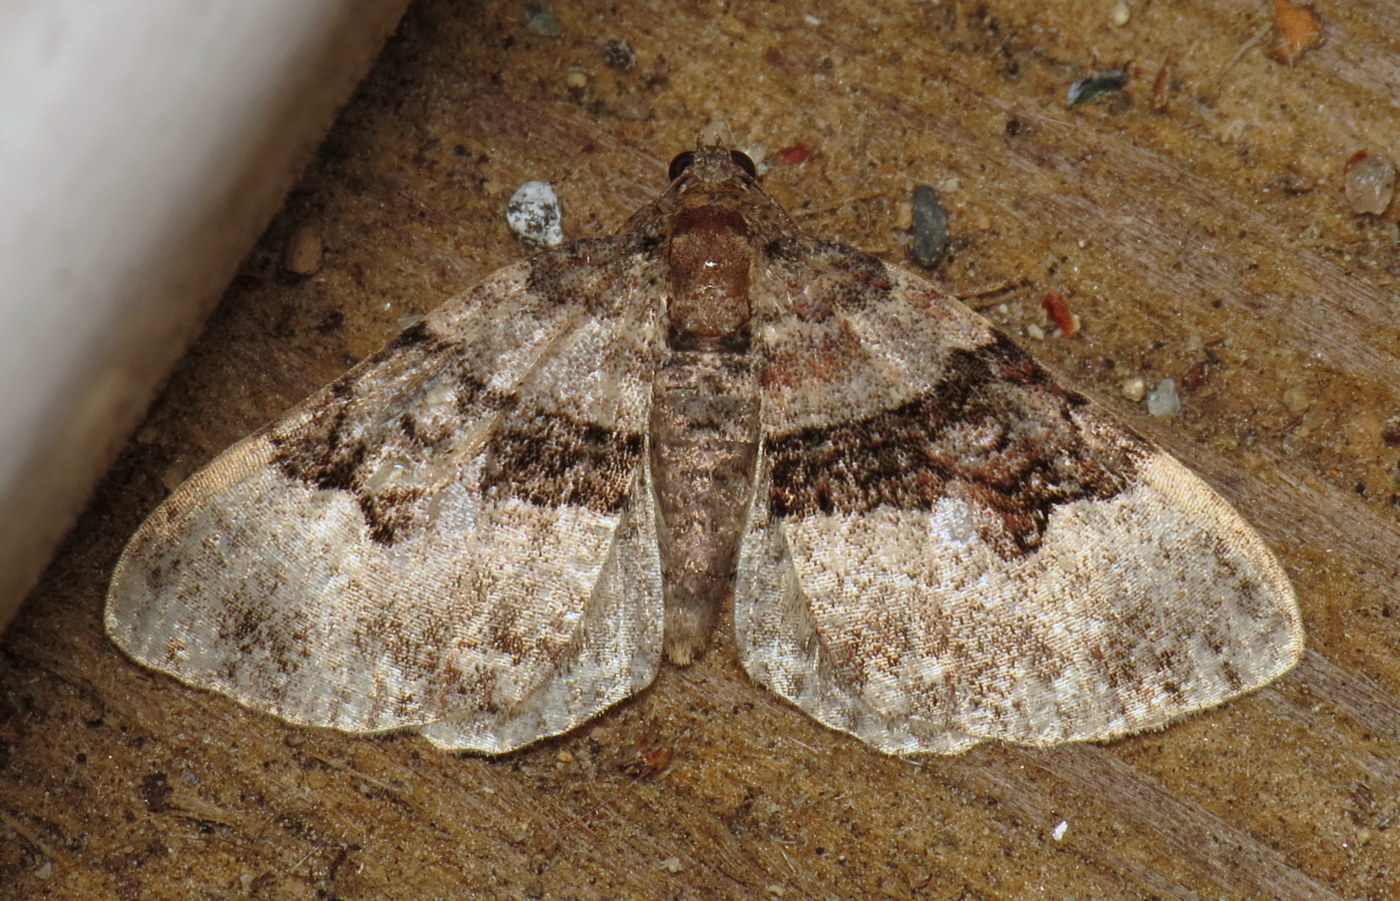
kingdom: Animalia
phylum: Arthropoda
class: Insecta
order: Lepidoptera
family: Geometridae
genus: Xanthorhoe
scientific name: Xanthorhoe lacustrata
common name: Toothed brown carpet
